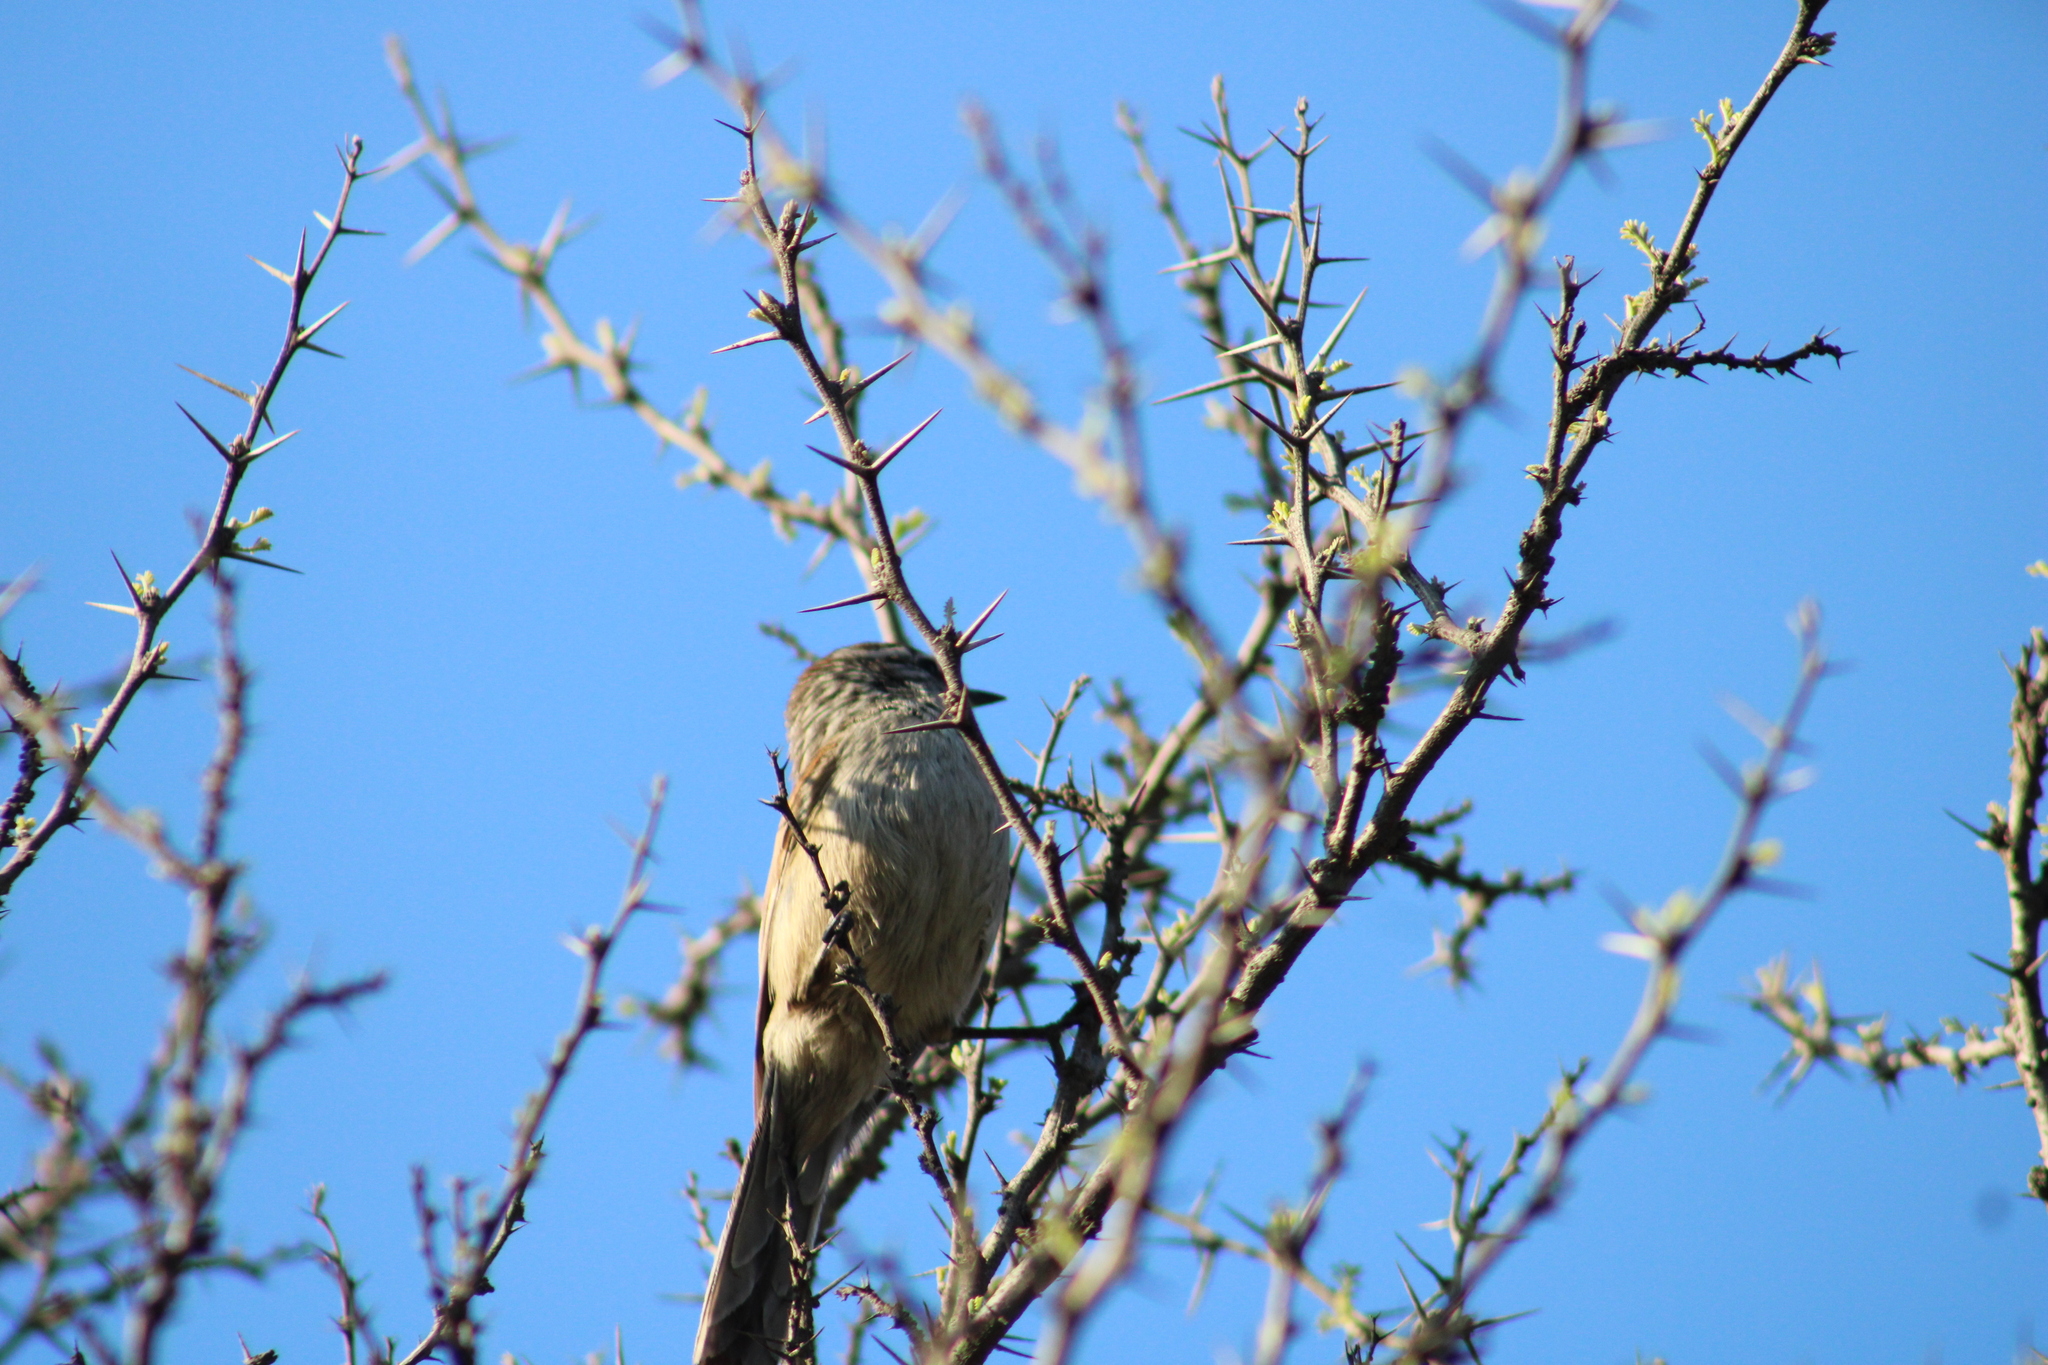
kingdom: Animalia
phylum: Chordata
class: Aves
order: Passeriformes
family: Furnariidae
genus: Leptasthenura
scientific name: Leptasthenura aegithaloides
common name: Plain-mantled tit-spinetail
